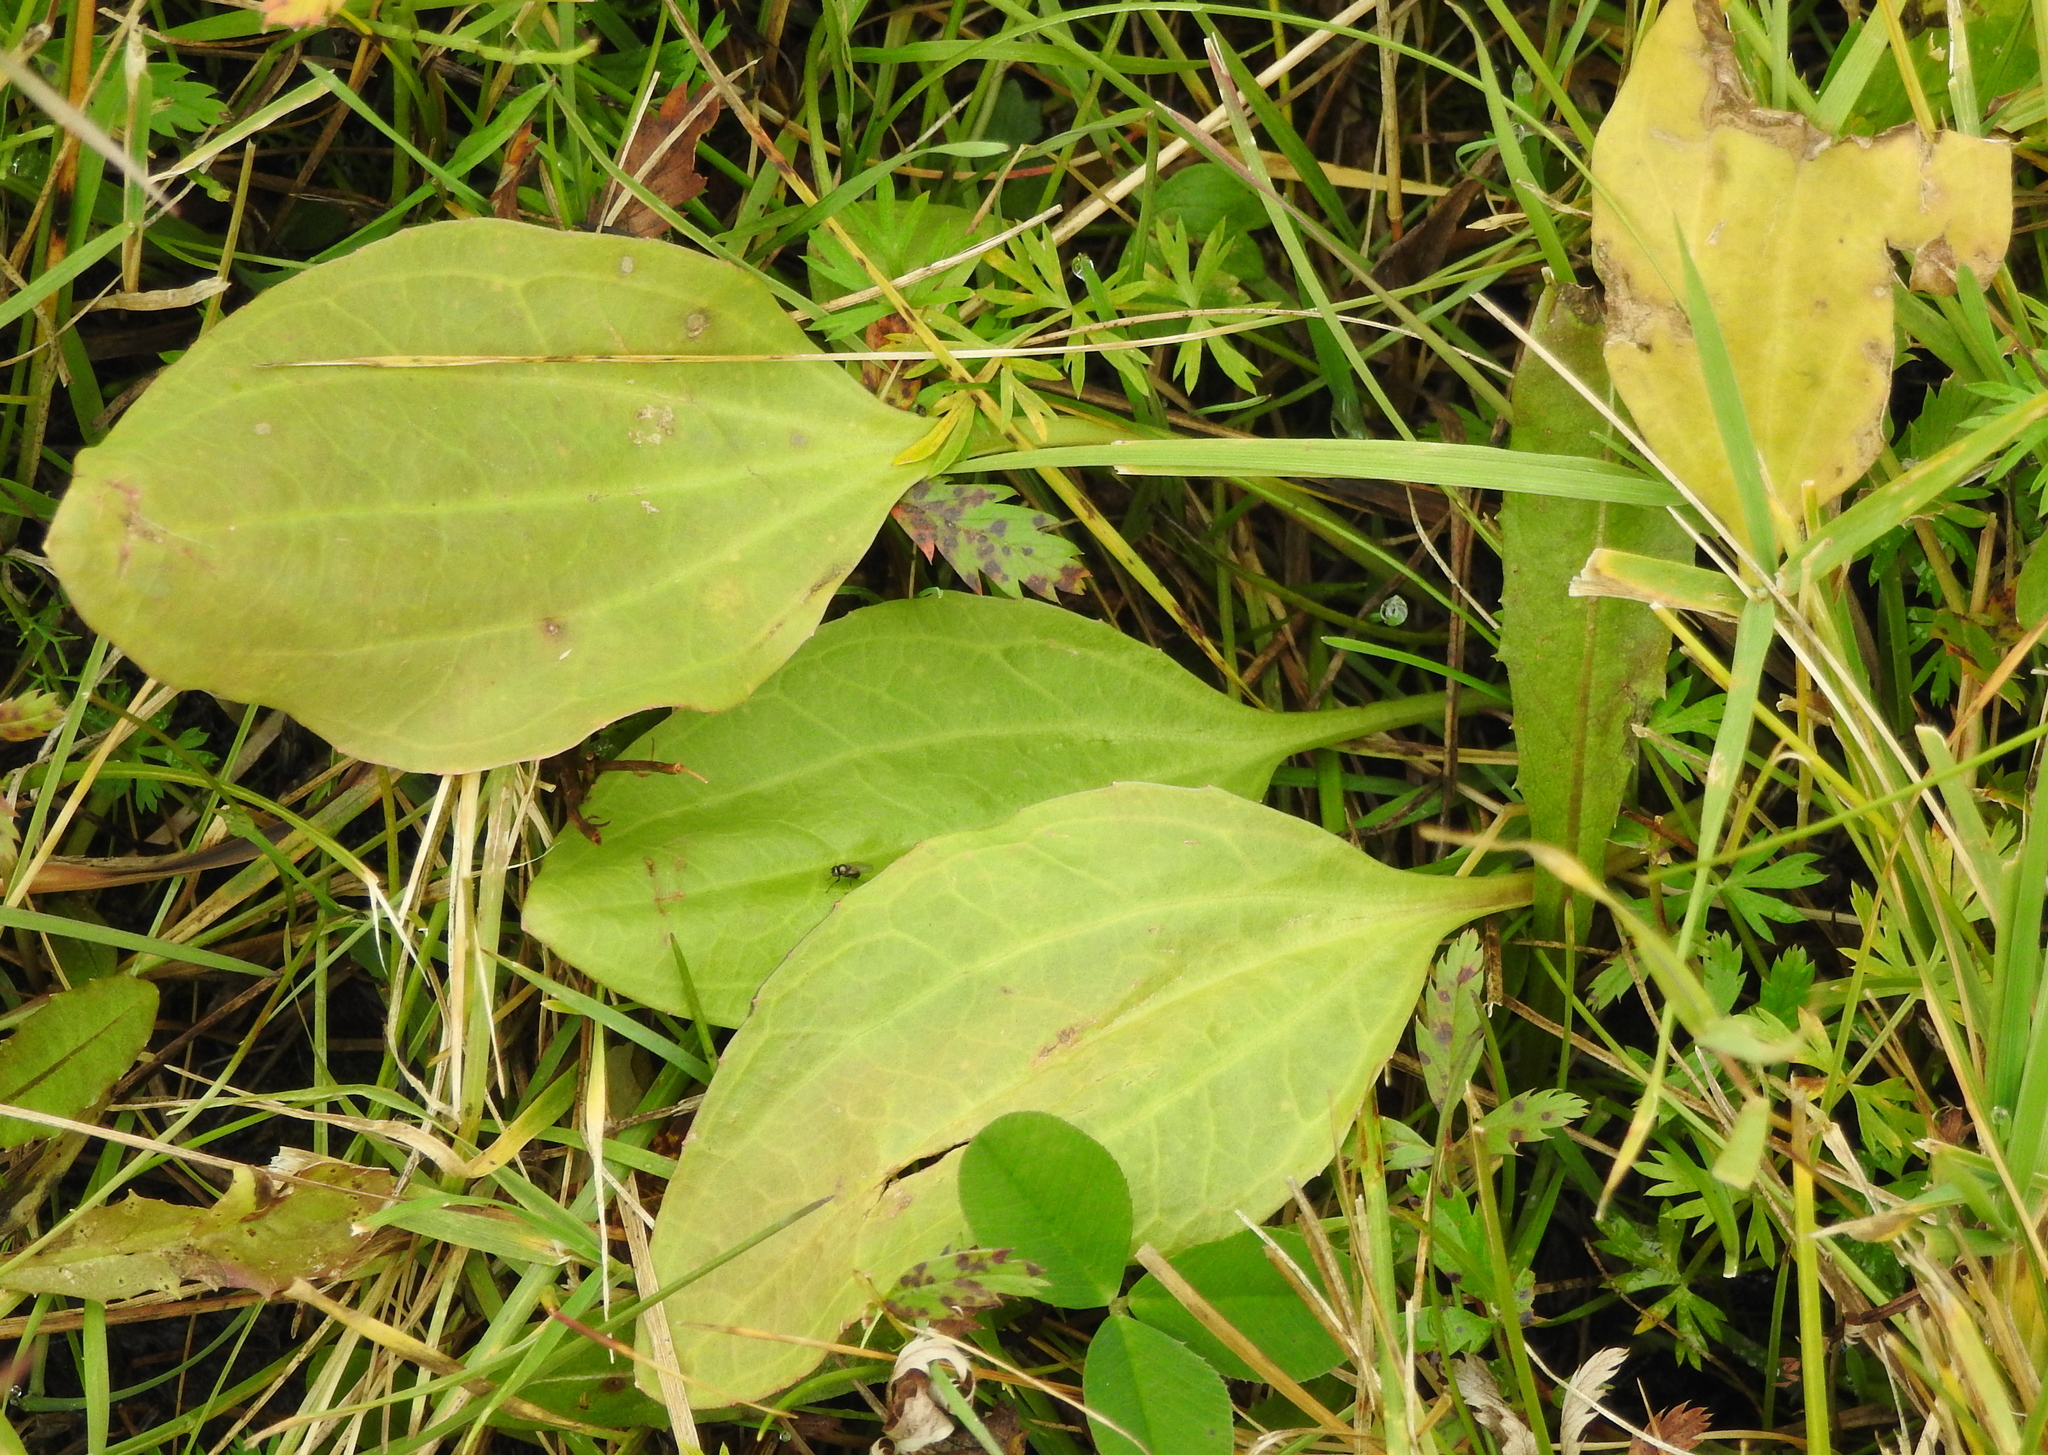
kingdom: Plantae
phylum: Tracheophyta
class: Magnoliopsida
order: Lamiales
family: Plantaginaceae
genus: Plantago
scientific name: Plantago major
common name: Common plantain
